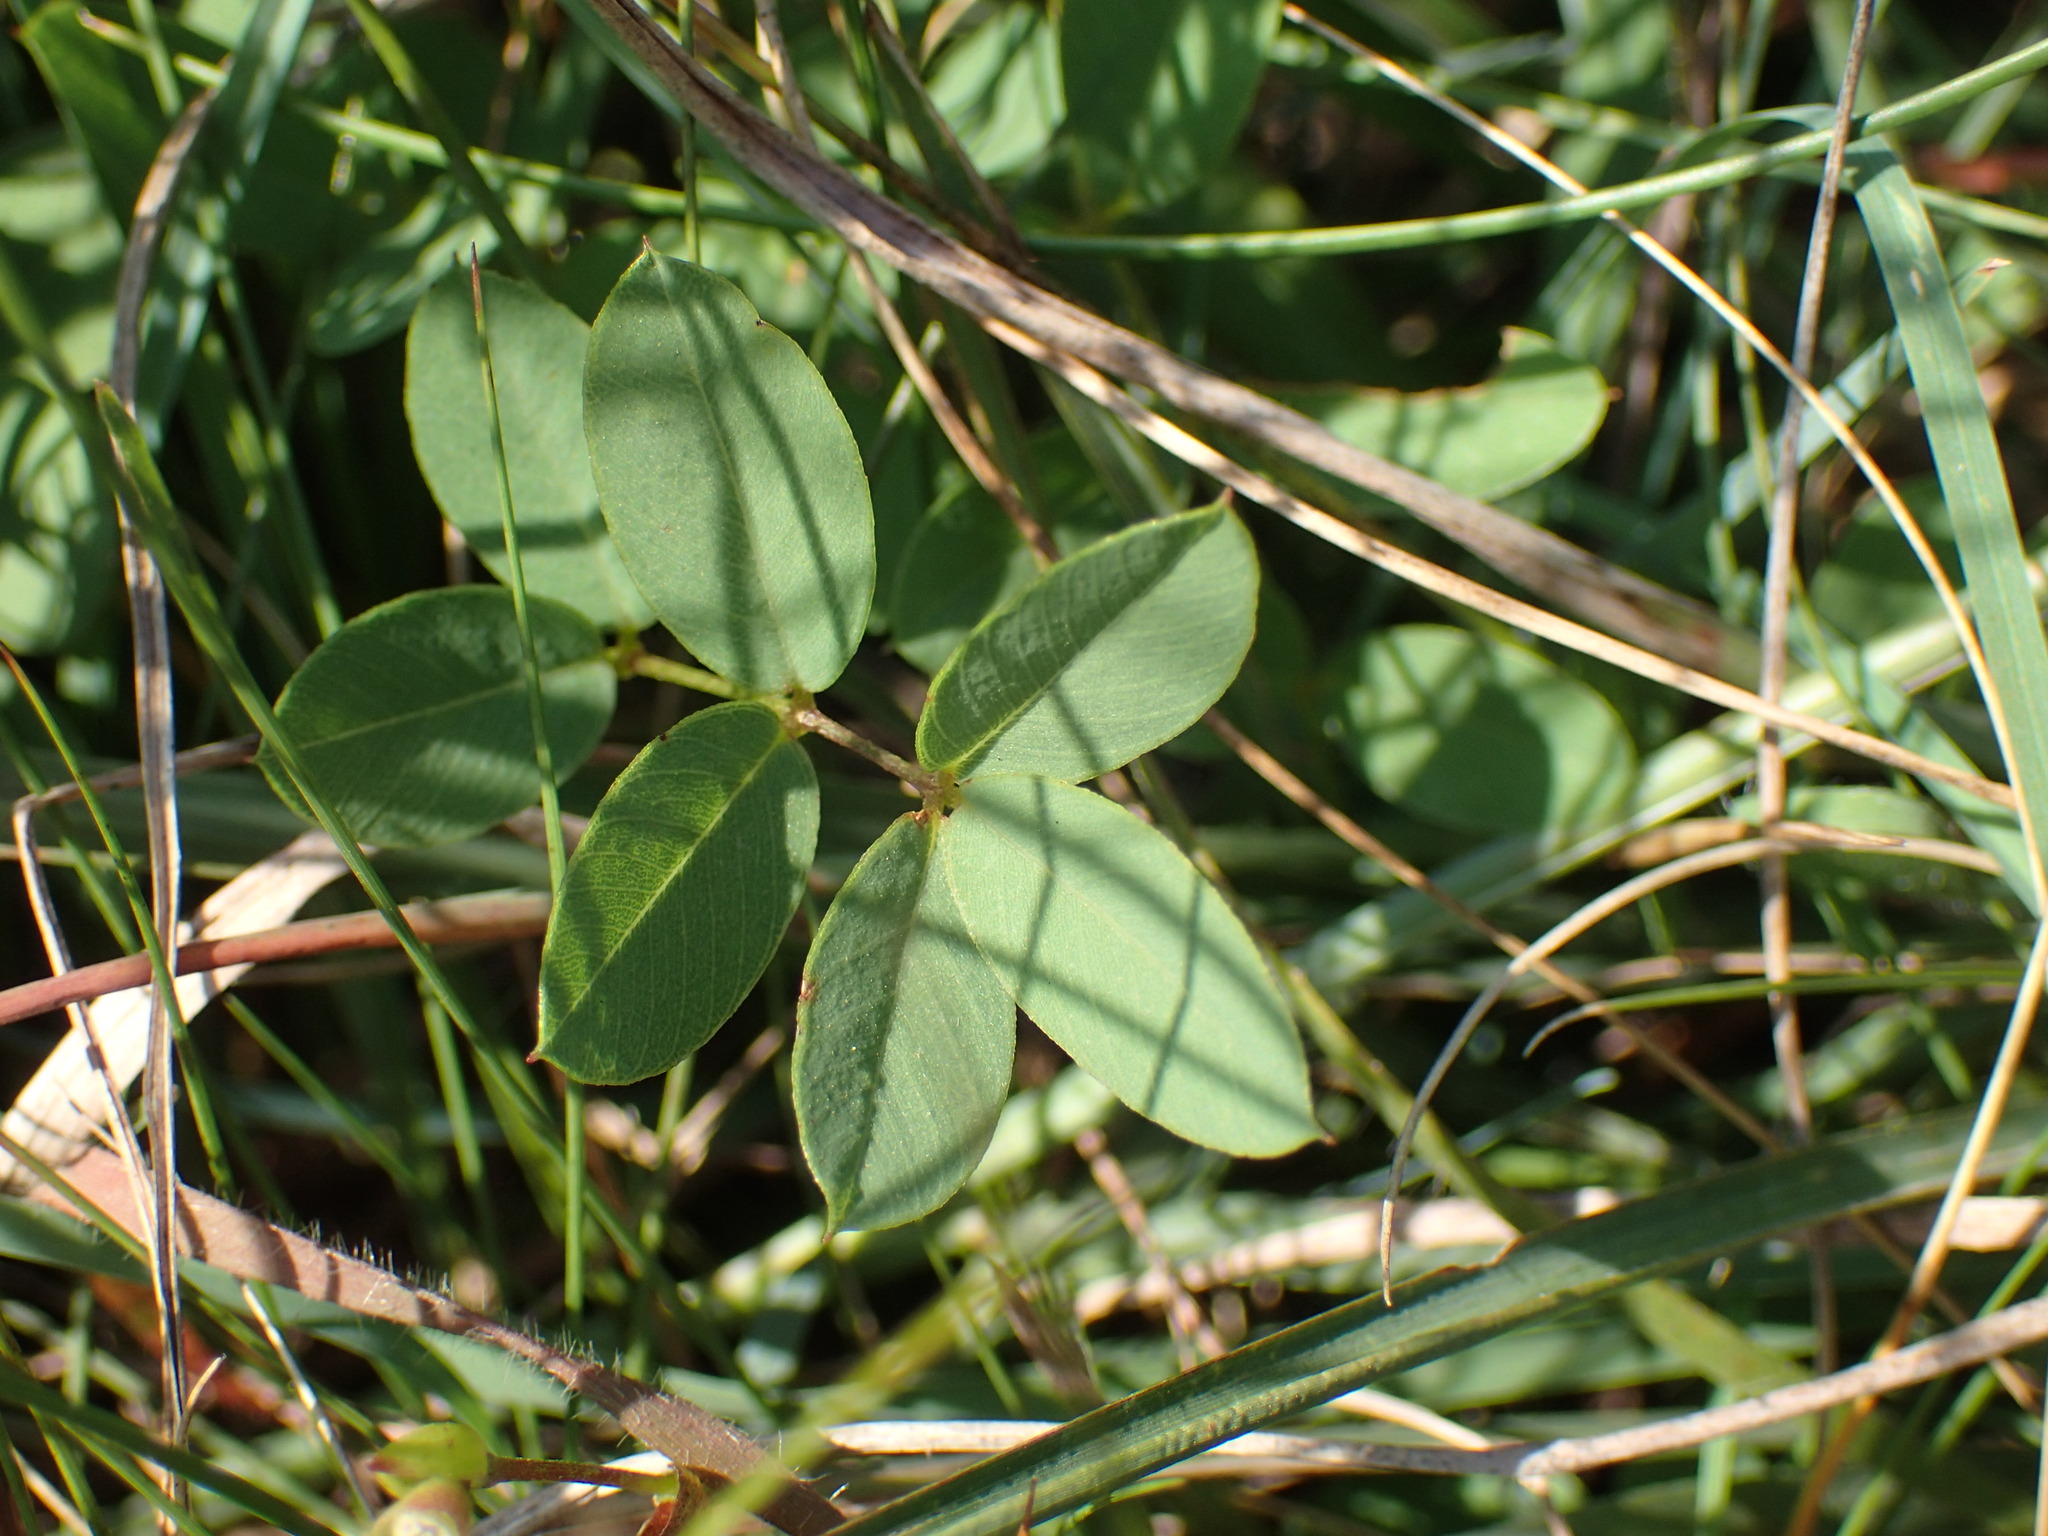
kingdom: Plantae
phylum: Tracheophyta
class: Magnoliopsida
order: Fabales
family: Fabaceae
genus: Tephrosia
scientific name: Tephrosia macropoda
